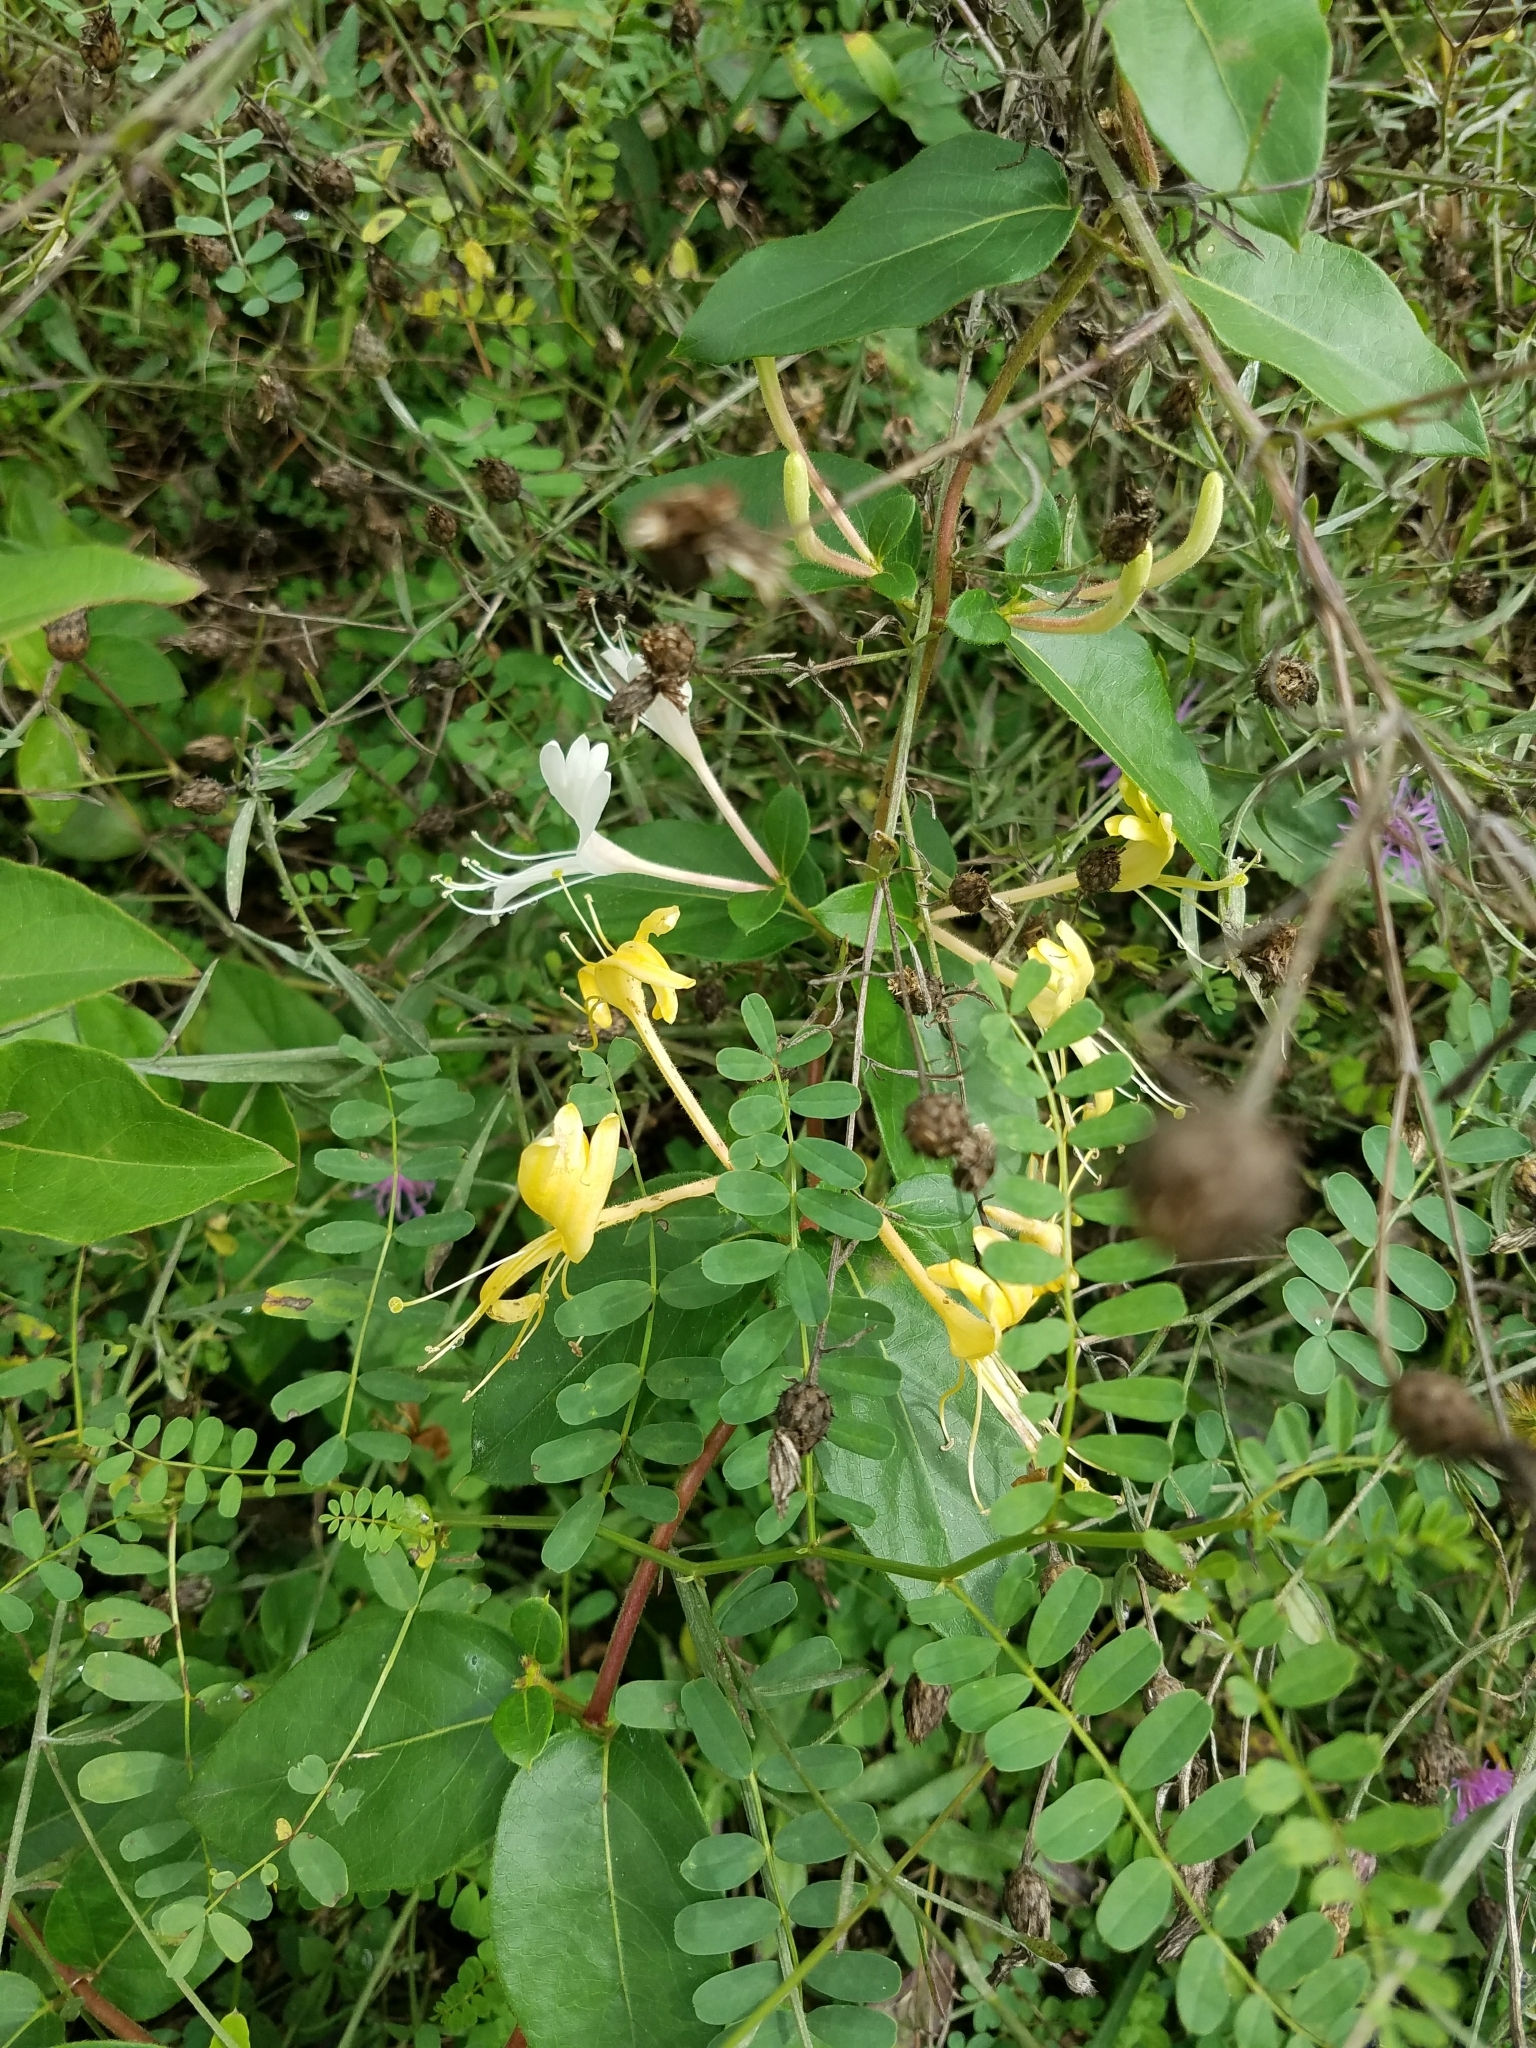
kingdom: Plantae
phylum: Tracheophyta
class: Magnoliopsida
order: Dipsacales
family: Caprifoliaceae
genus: Lonicera
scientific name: Lonicera japonica
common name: Japanese honeysuckle
